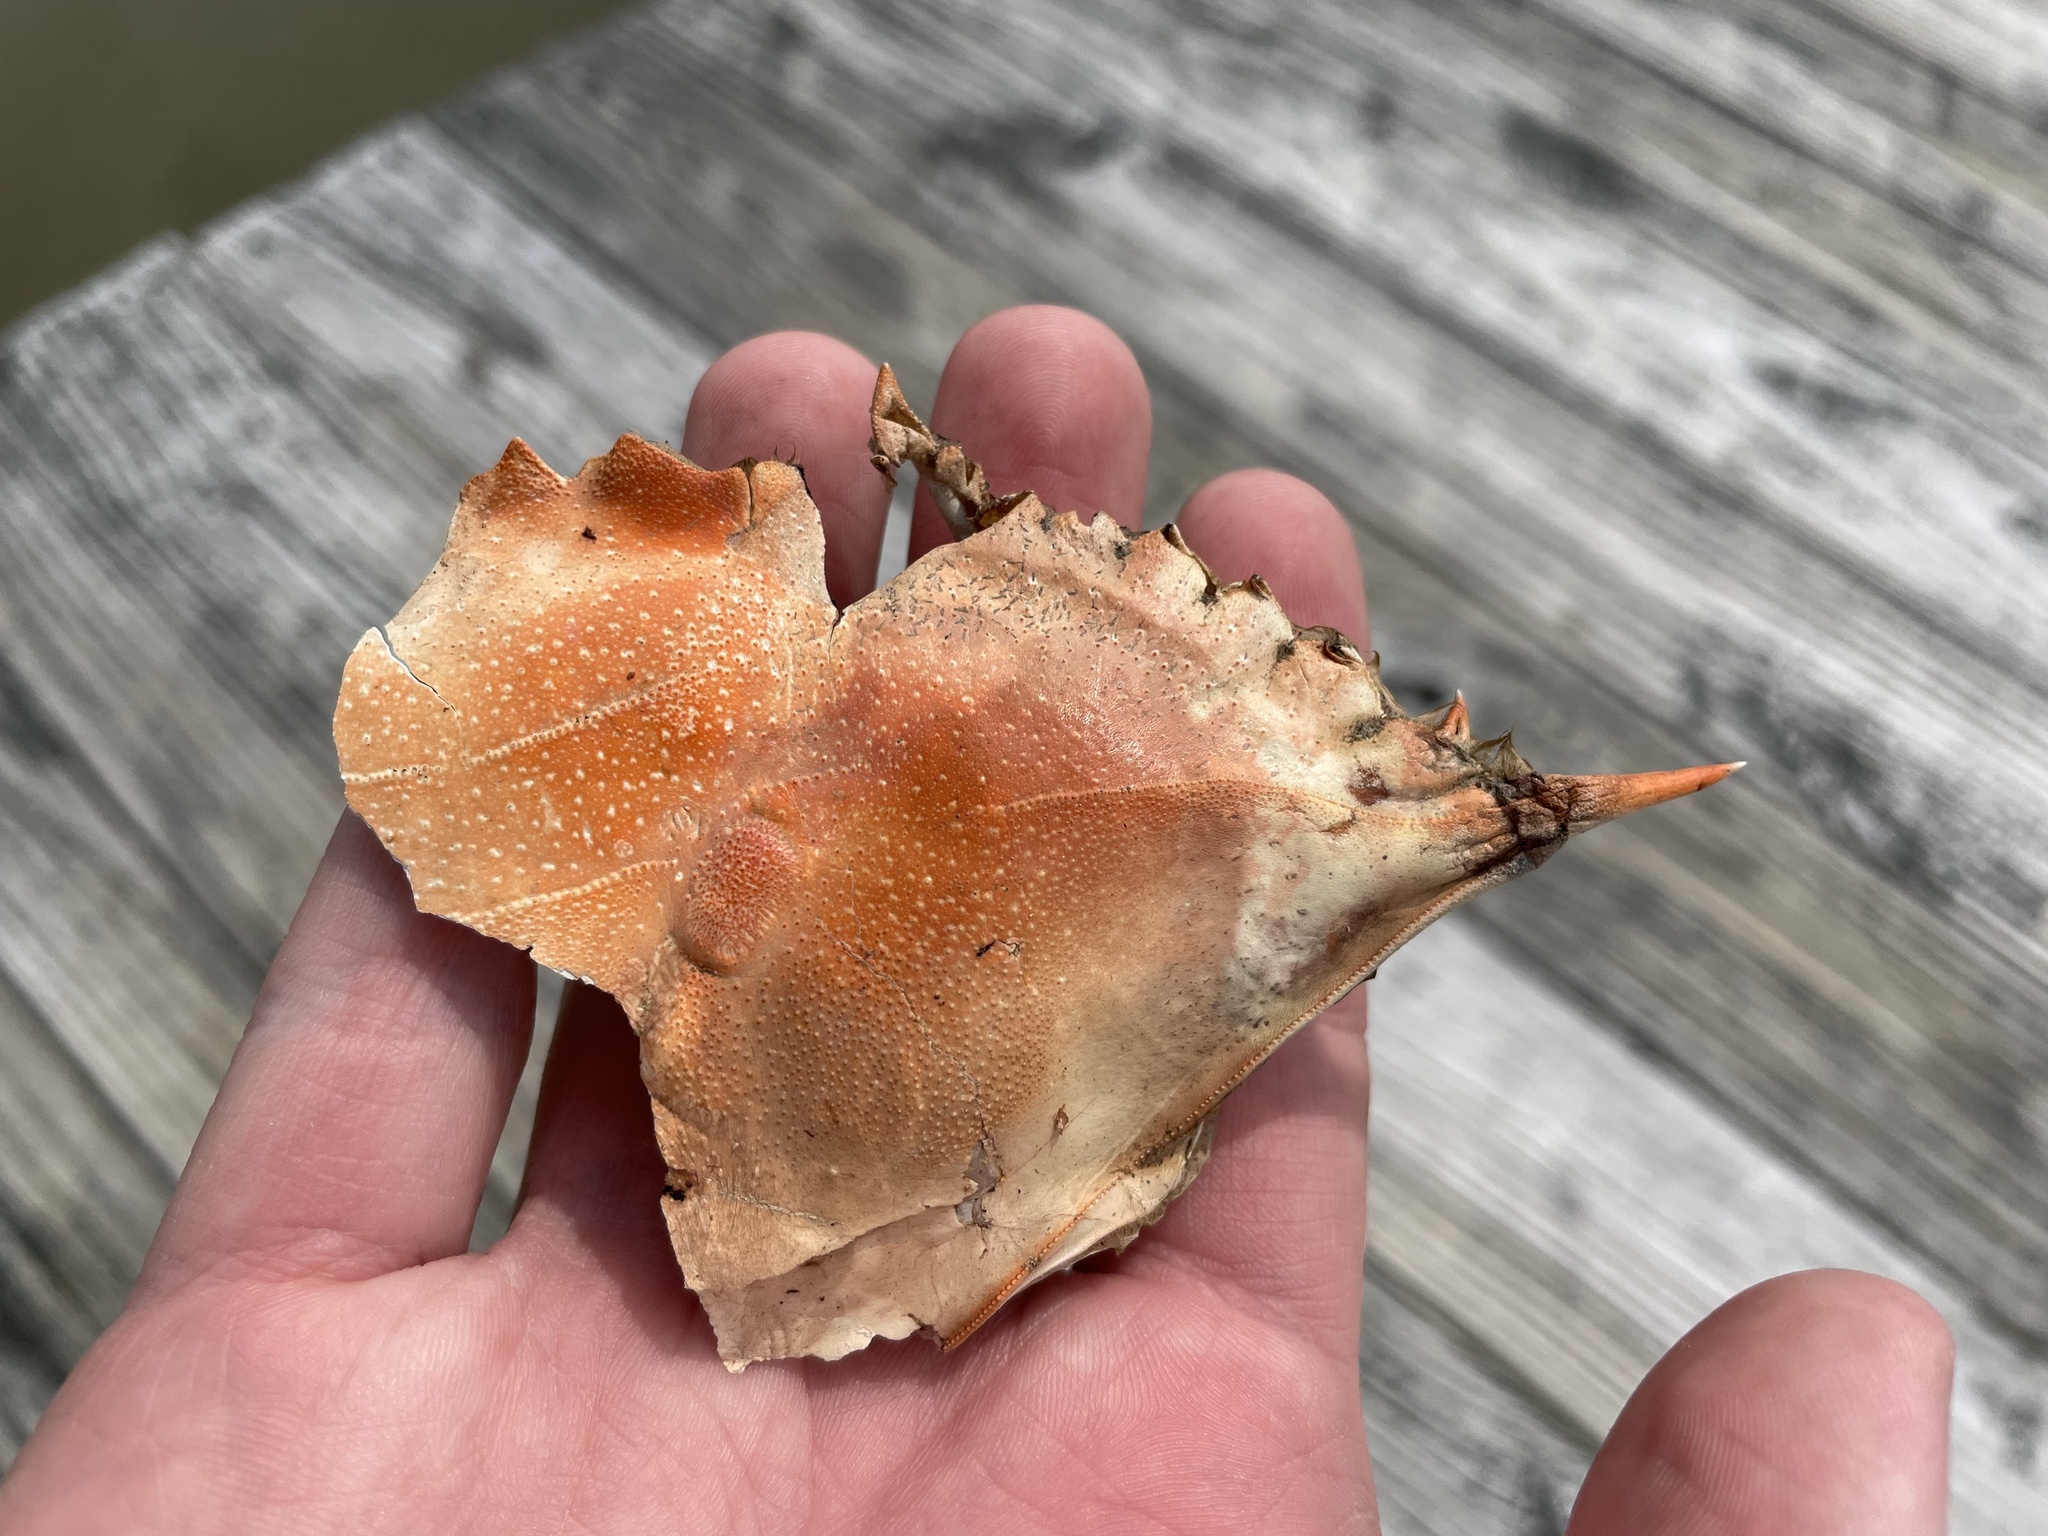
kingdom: Animalia
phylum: Arthropoda
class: Malacostraca
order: Decapoda
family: Portunidae
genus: Callinectes
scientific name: Callinectes sapidus
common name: Blue crab
